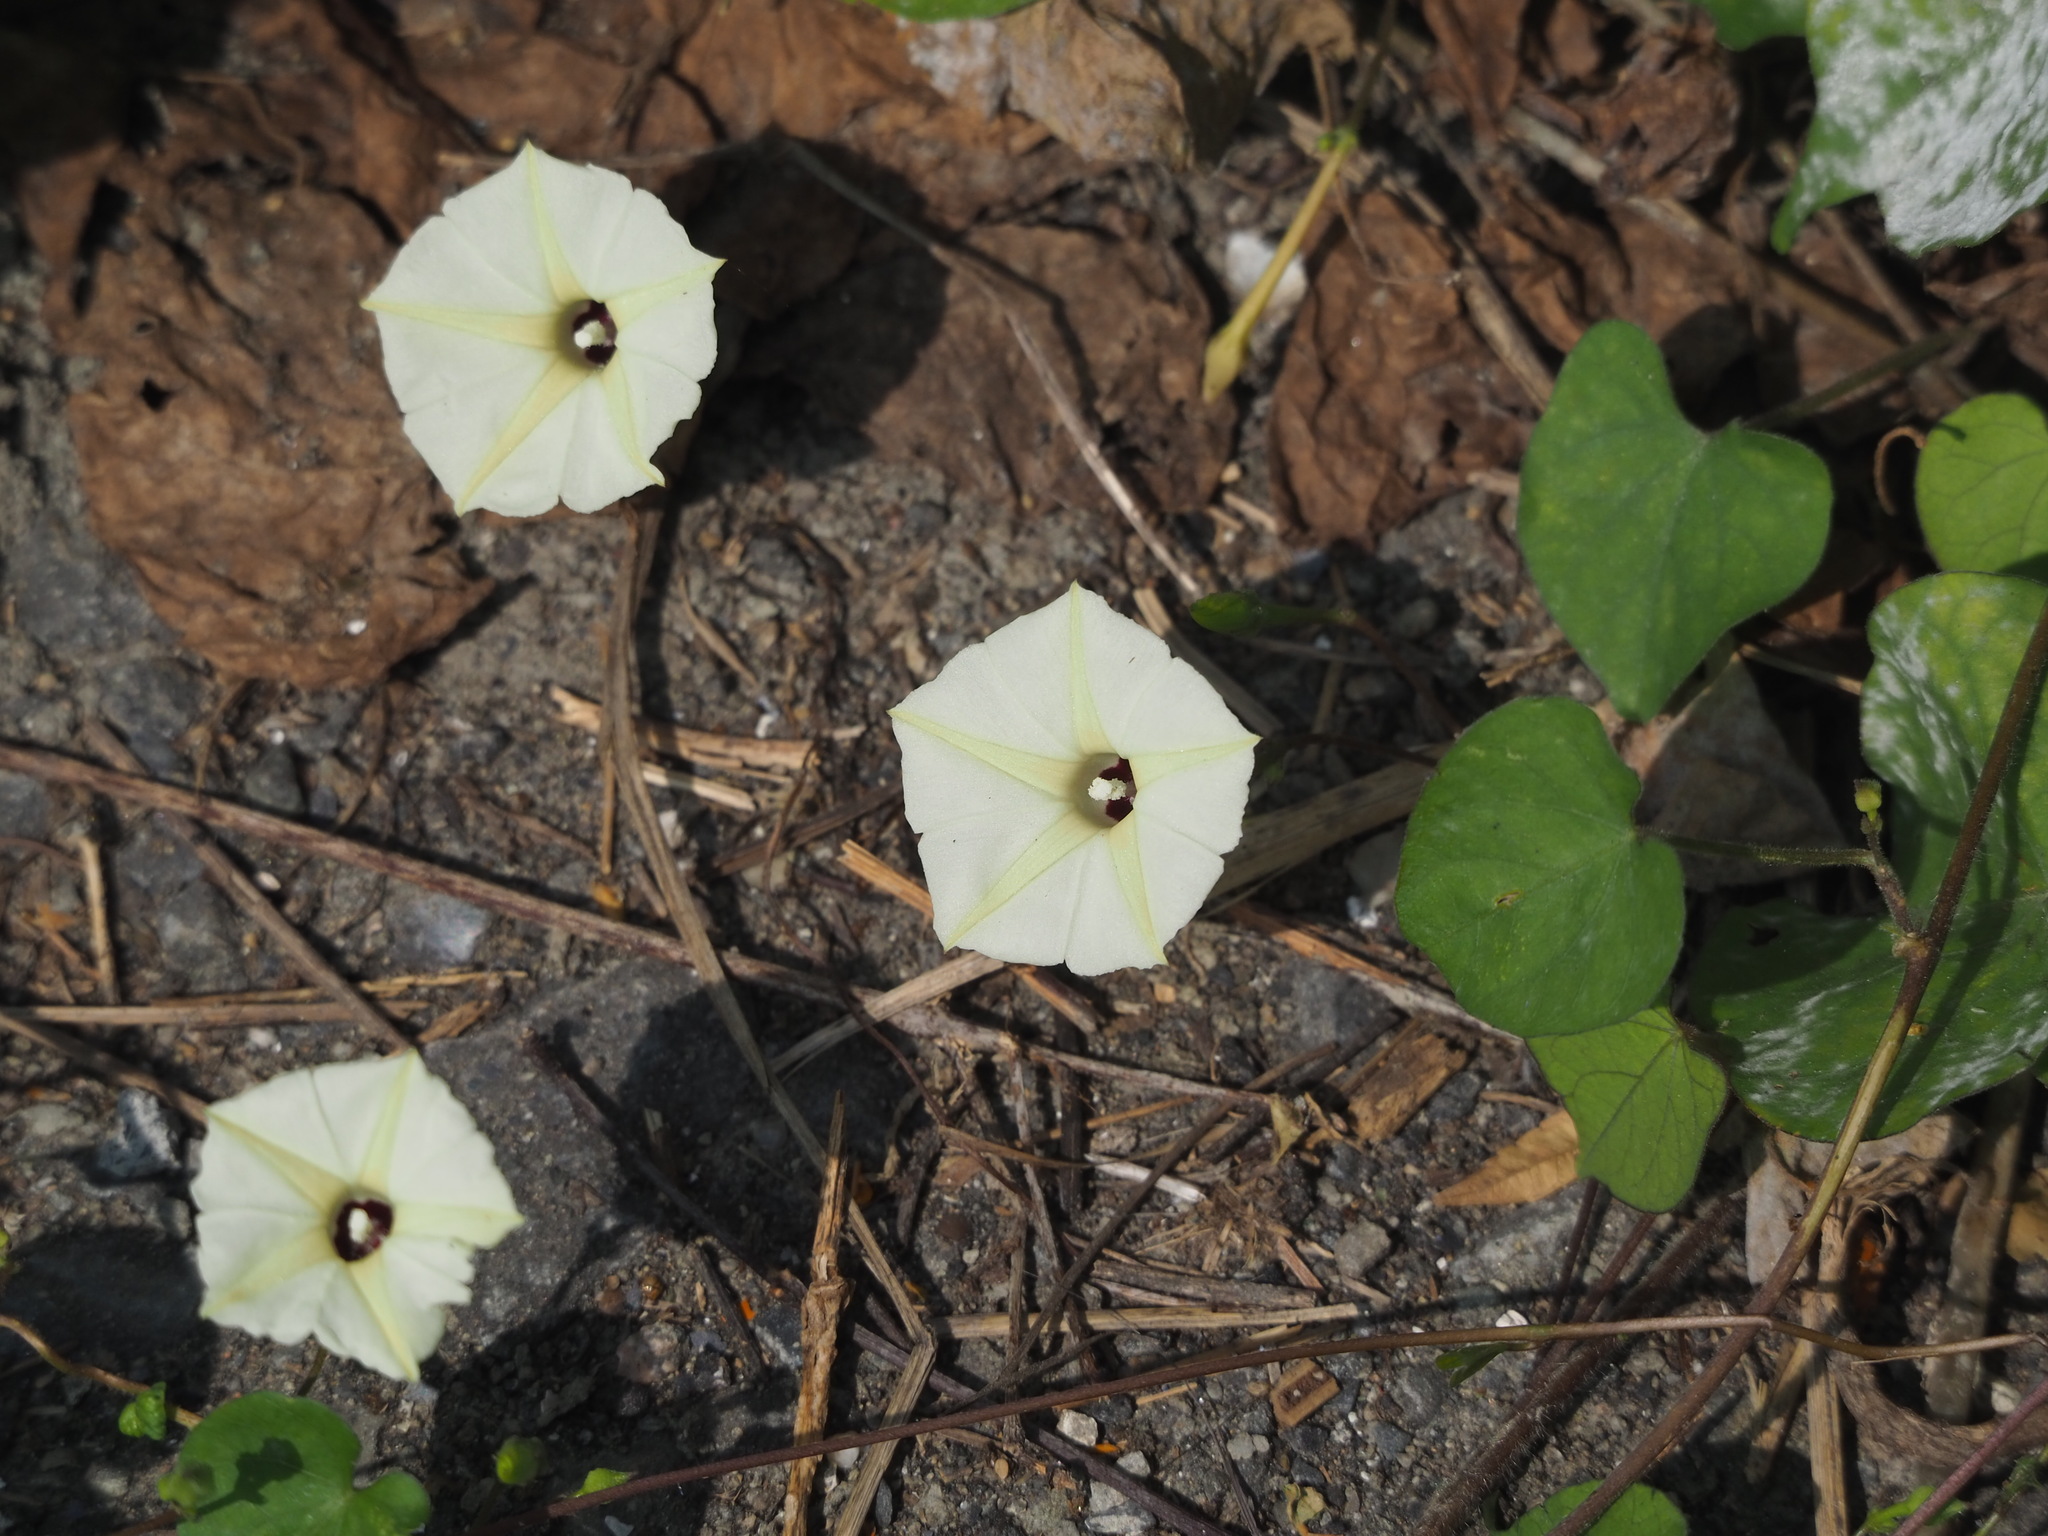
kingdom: Plantae
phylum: Tracheophyta
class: Magnoliopsida
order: Solanales
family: Convolvulaceae
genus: Ipomoea
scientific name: Ipomoea obscura
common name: Obscure morning-glory
